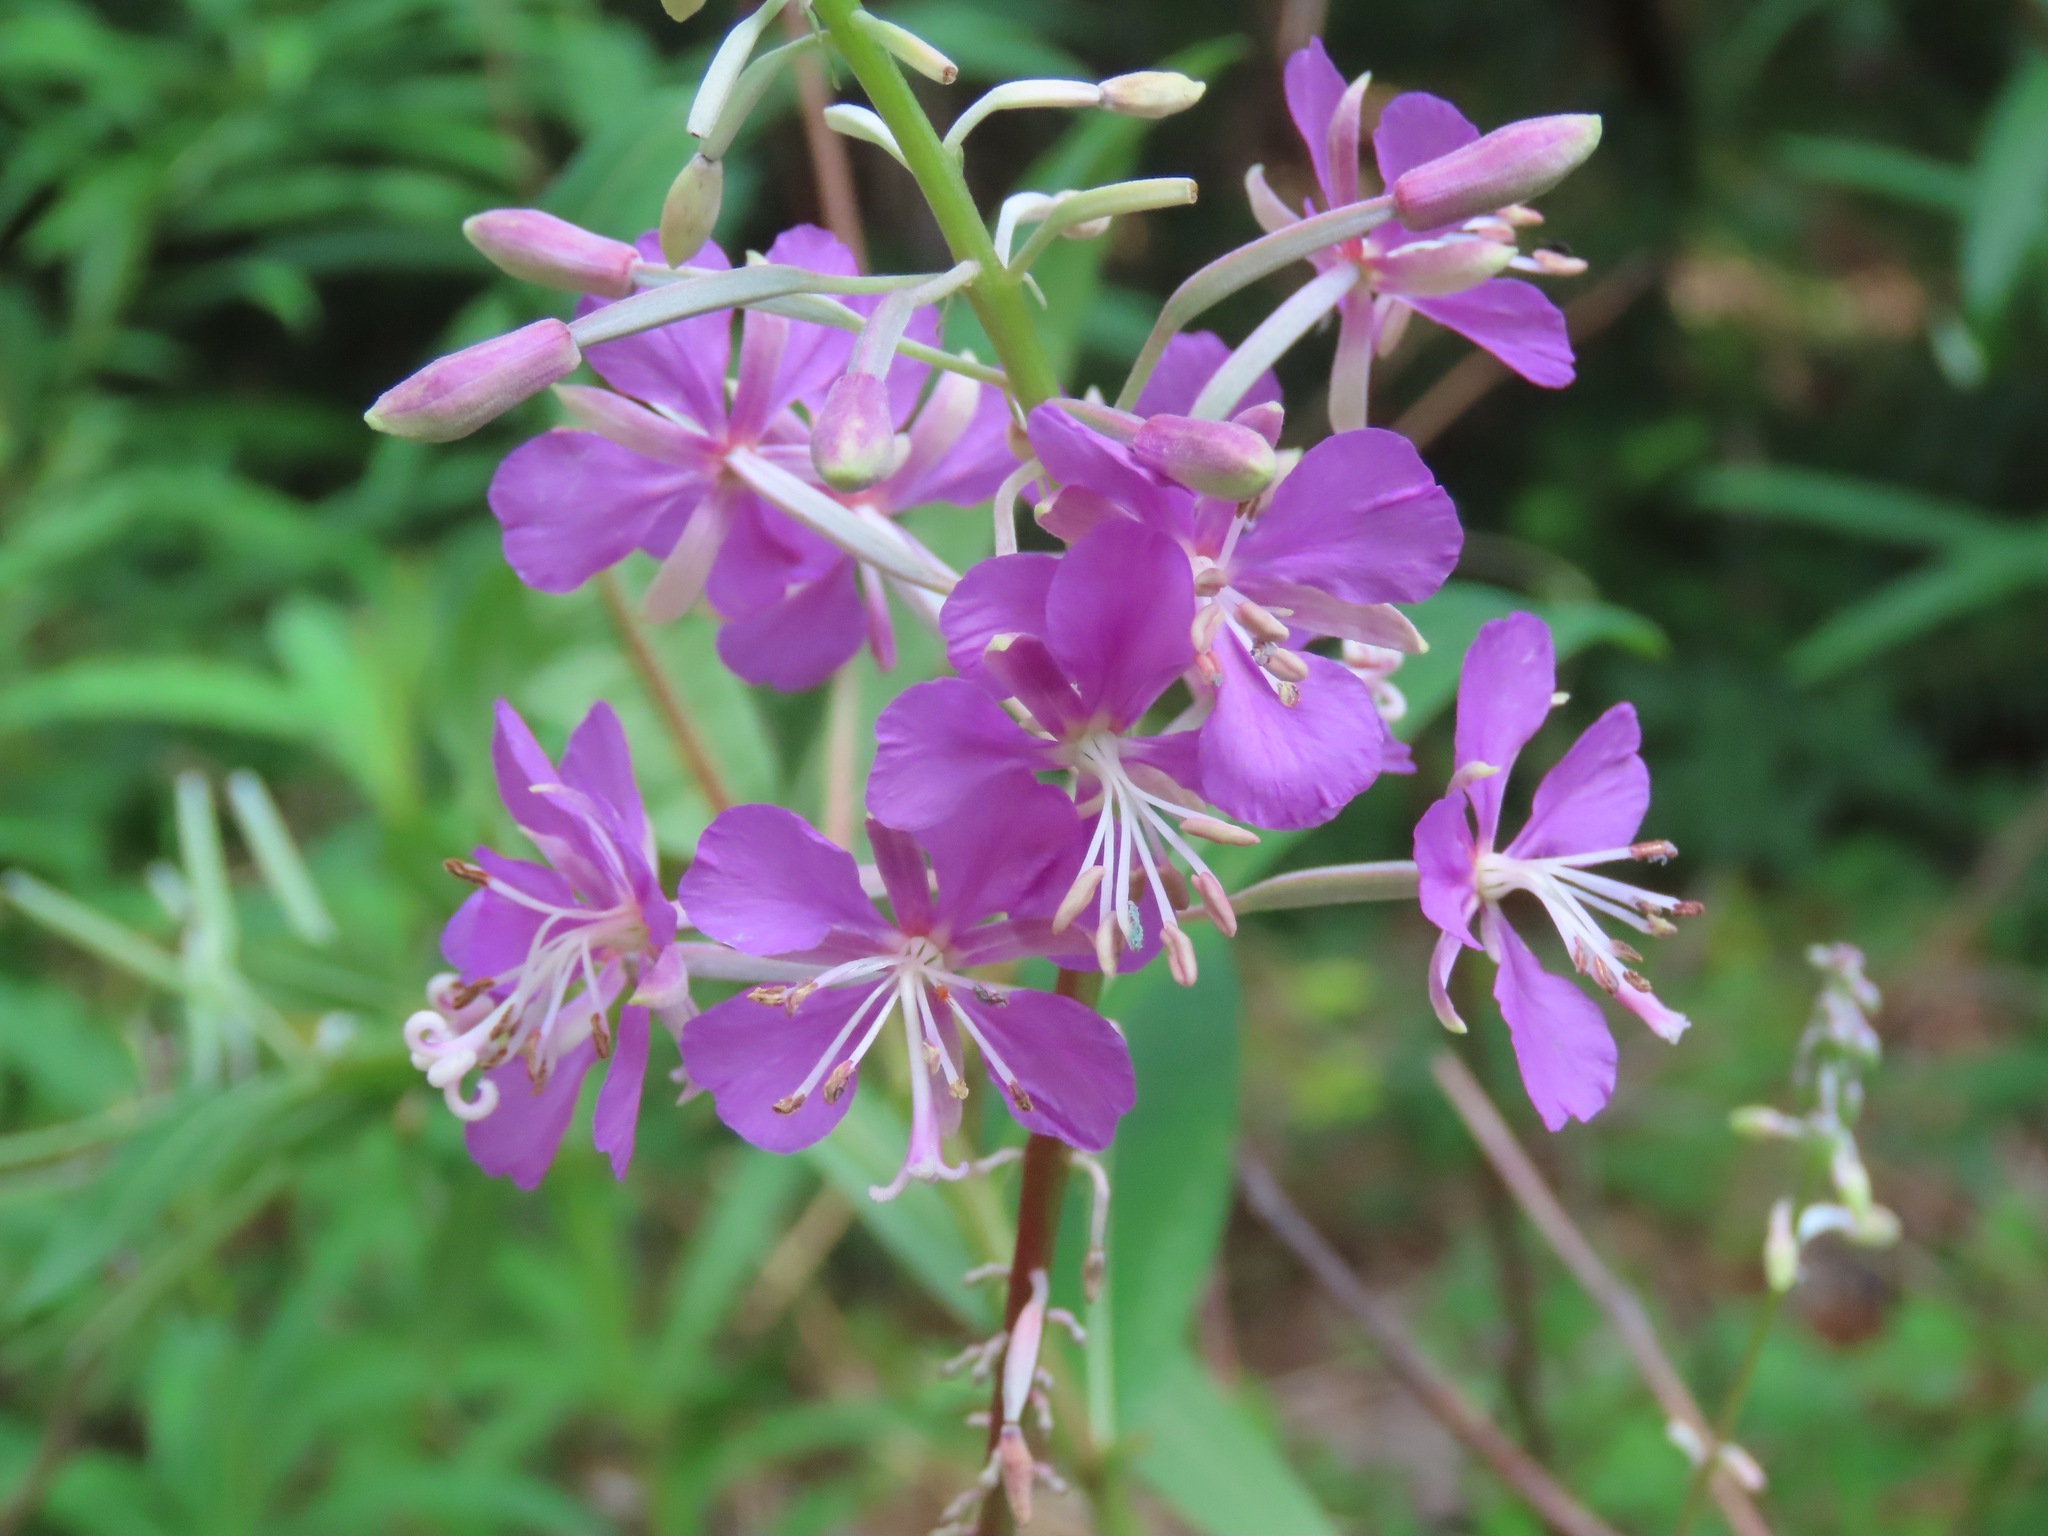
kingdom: Plantae
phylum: Tracheophyta
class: Magnoliopsida
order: Myrtales
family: Onagraceae
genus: Chamaenerion
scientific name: Chamaenerion angustifolium
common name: Fireweed
